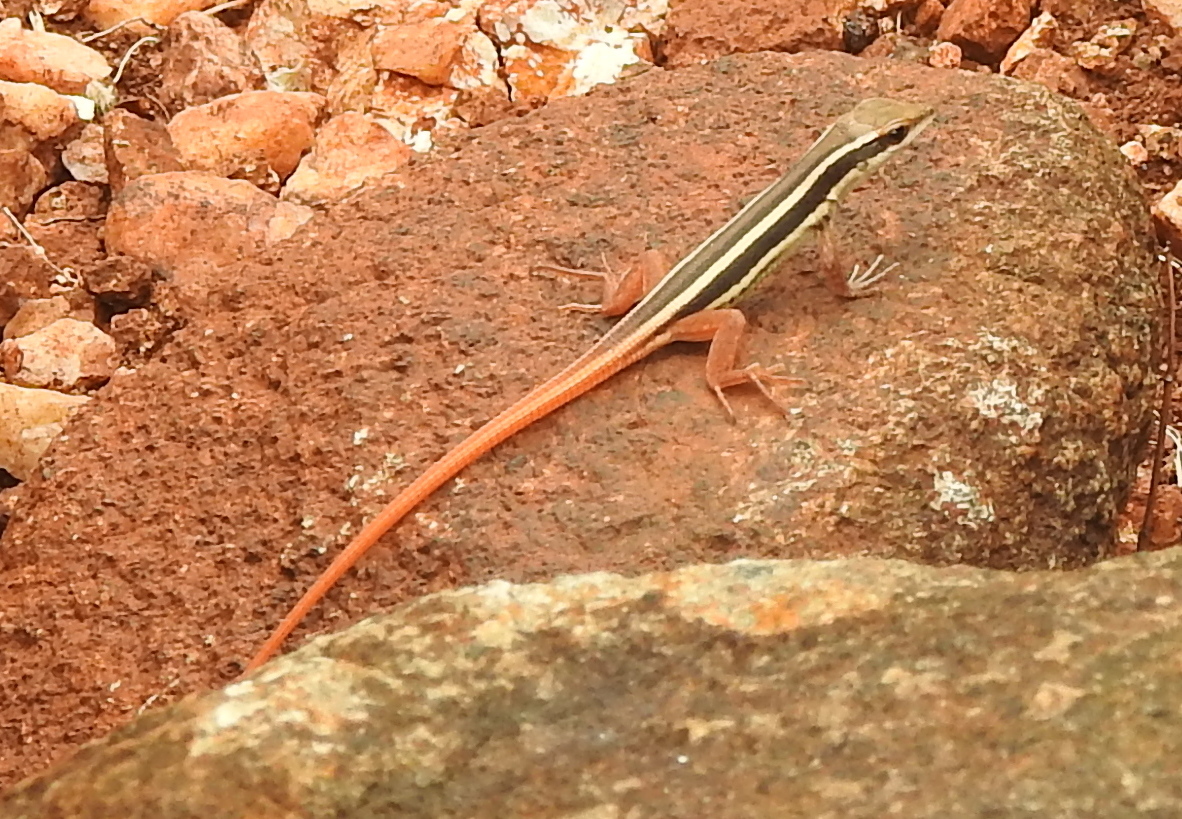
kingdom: Animalia
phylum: Chordata
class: Squamata
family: Lacertidae
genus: Ophisops
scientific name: Ophisops leschenaultii
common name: Leschenault's cabrita
